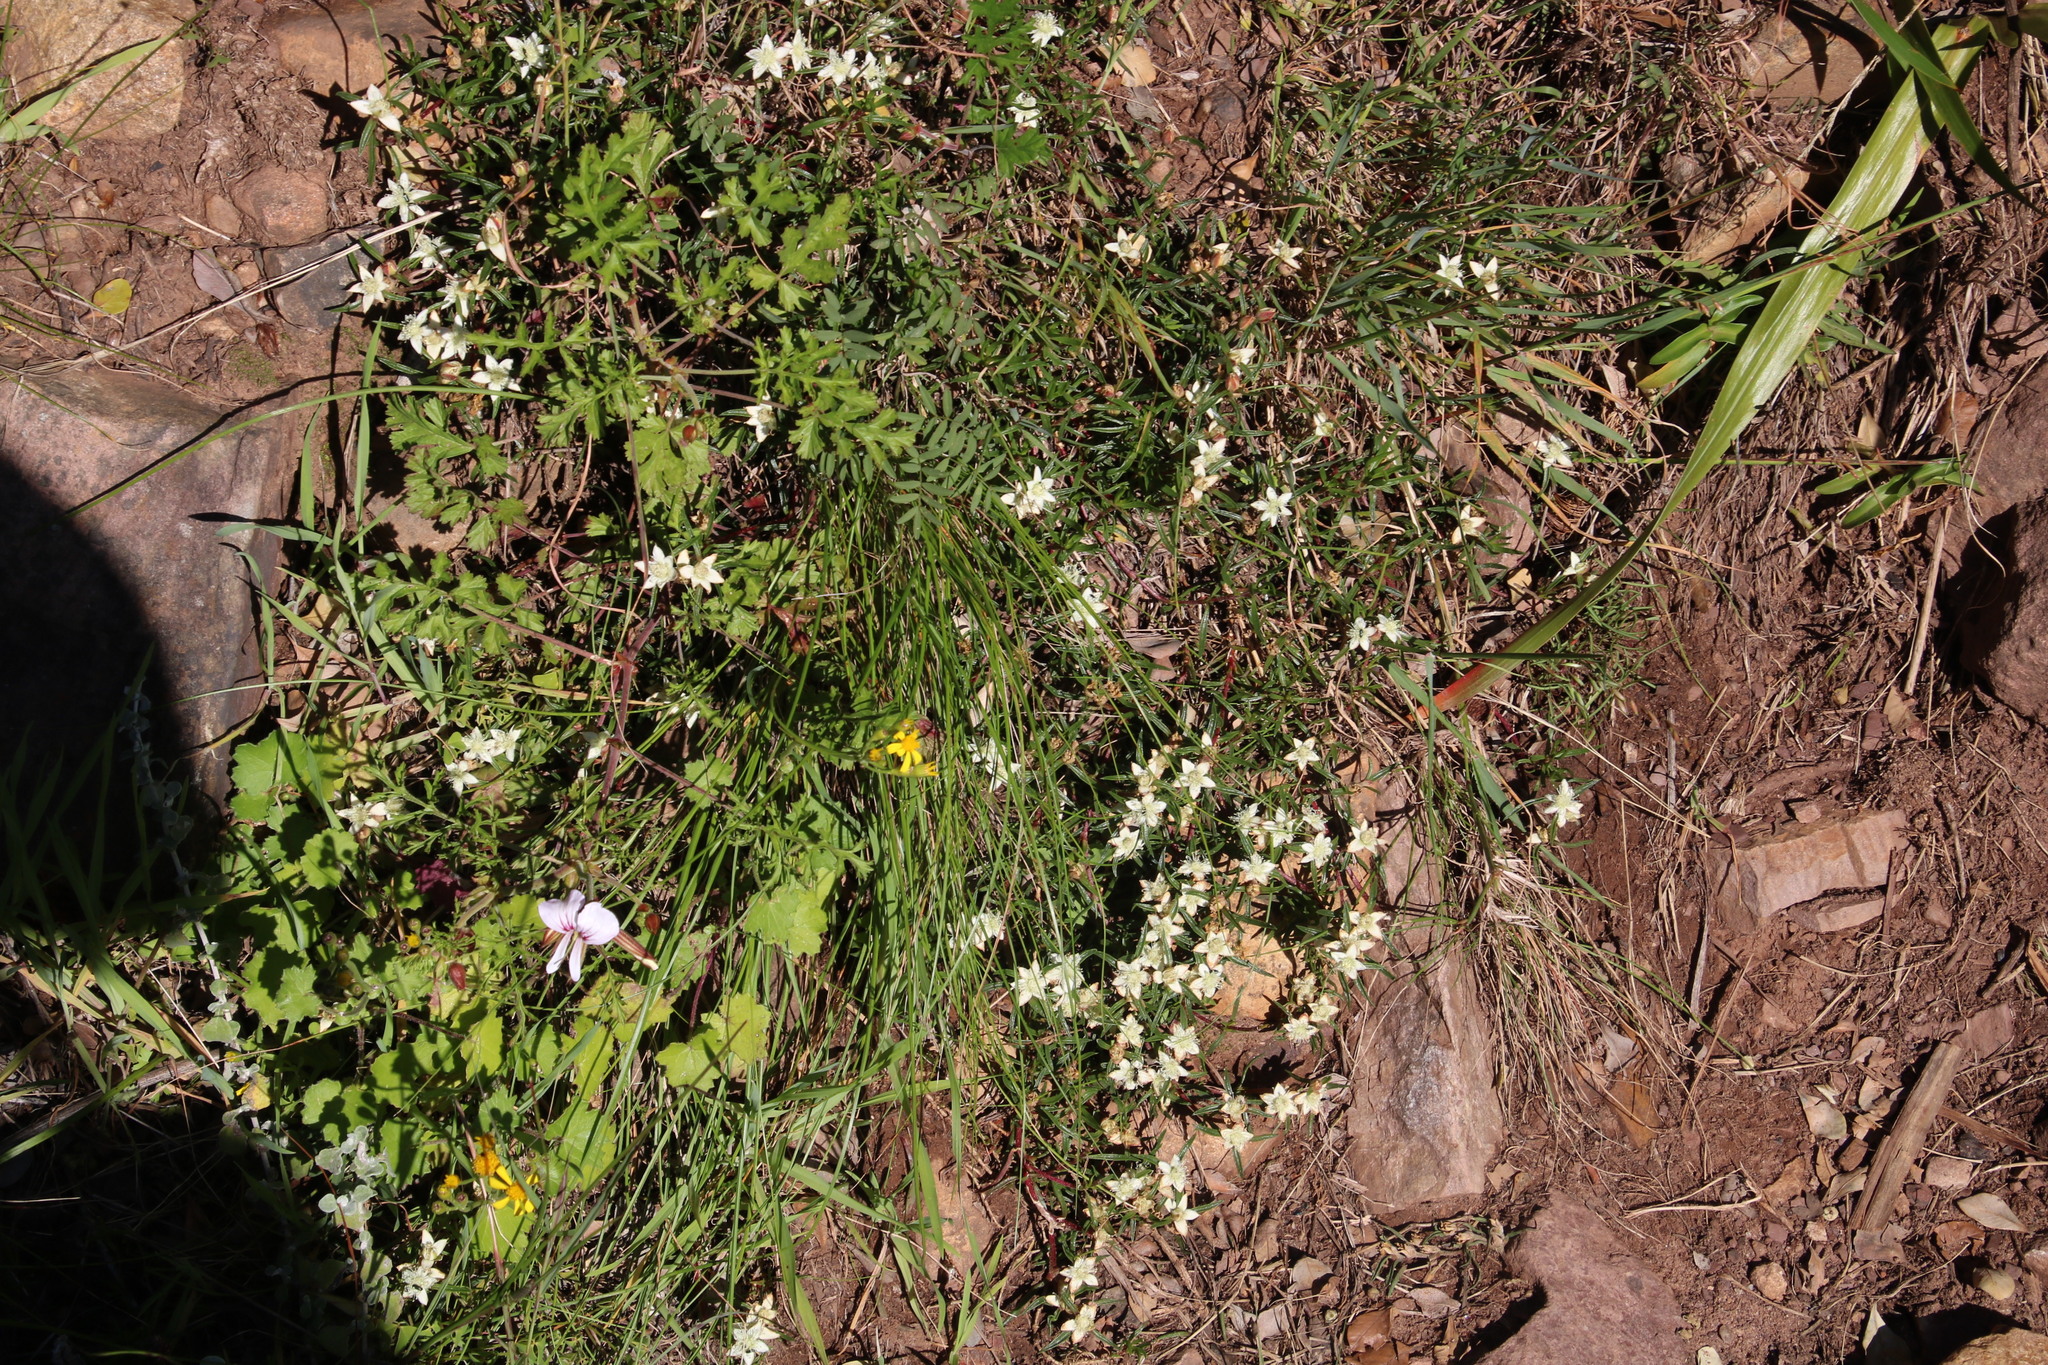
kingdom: Plantae
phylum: Tracheophyta
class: Magnoliopsida
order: Caryophyllales
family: Aizoaceae
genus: Aizoon
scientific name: Aizoon sarmentosum
